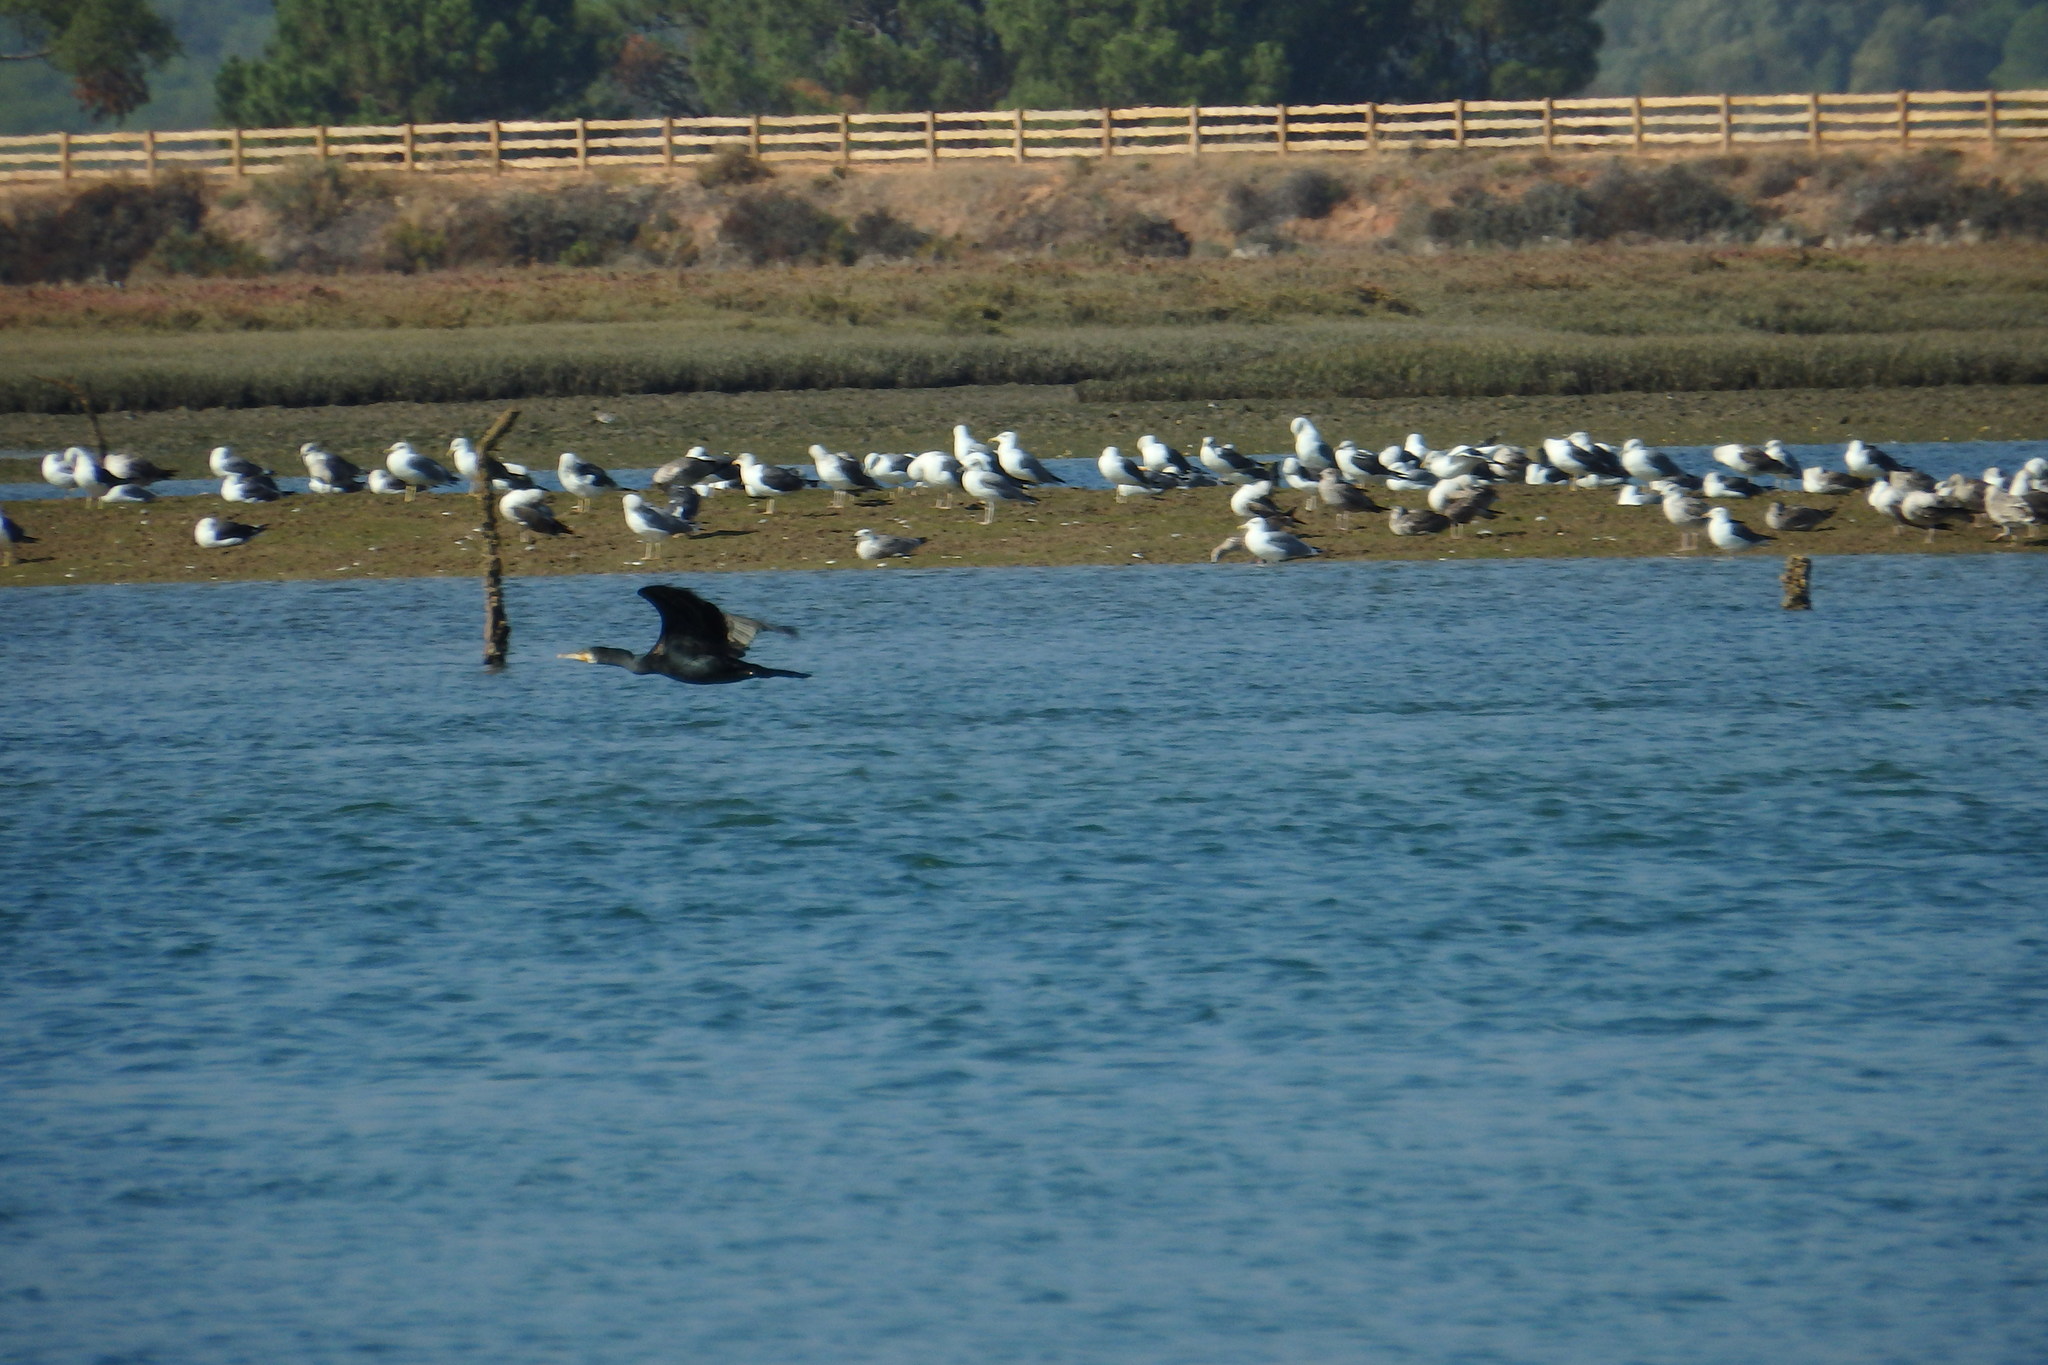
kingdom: Animalia
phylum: Chordata
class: Aves
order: Charadriiformes
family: Laridae
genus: Larus
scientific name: Larus fuscus
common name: Lesser black-backed gull
